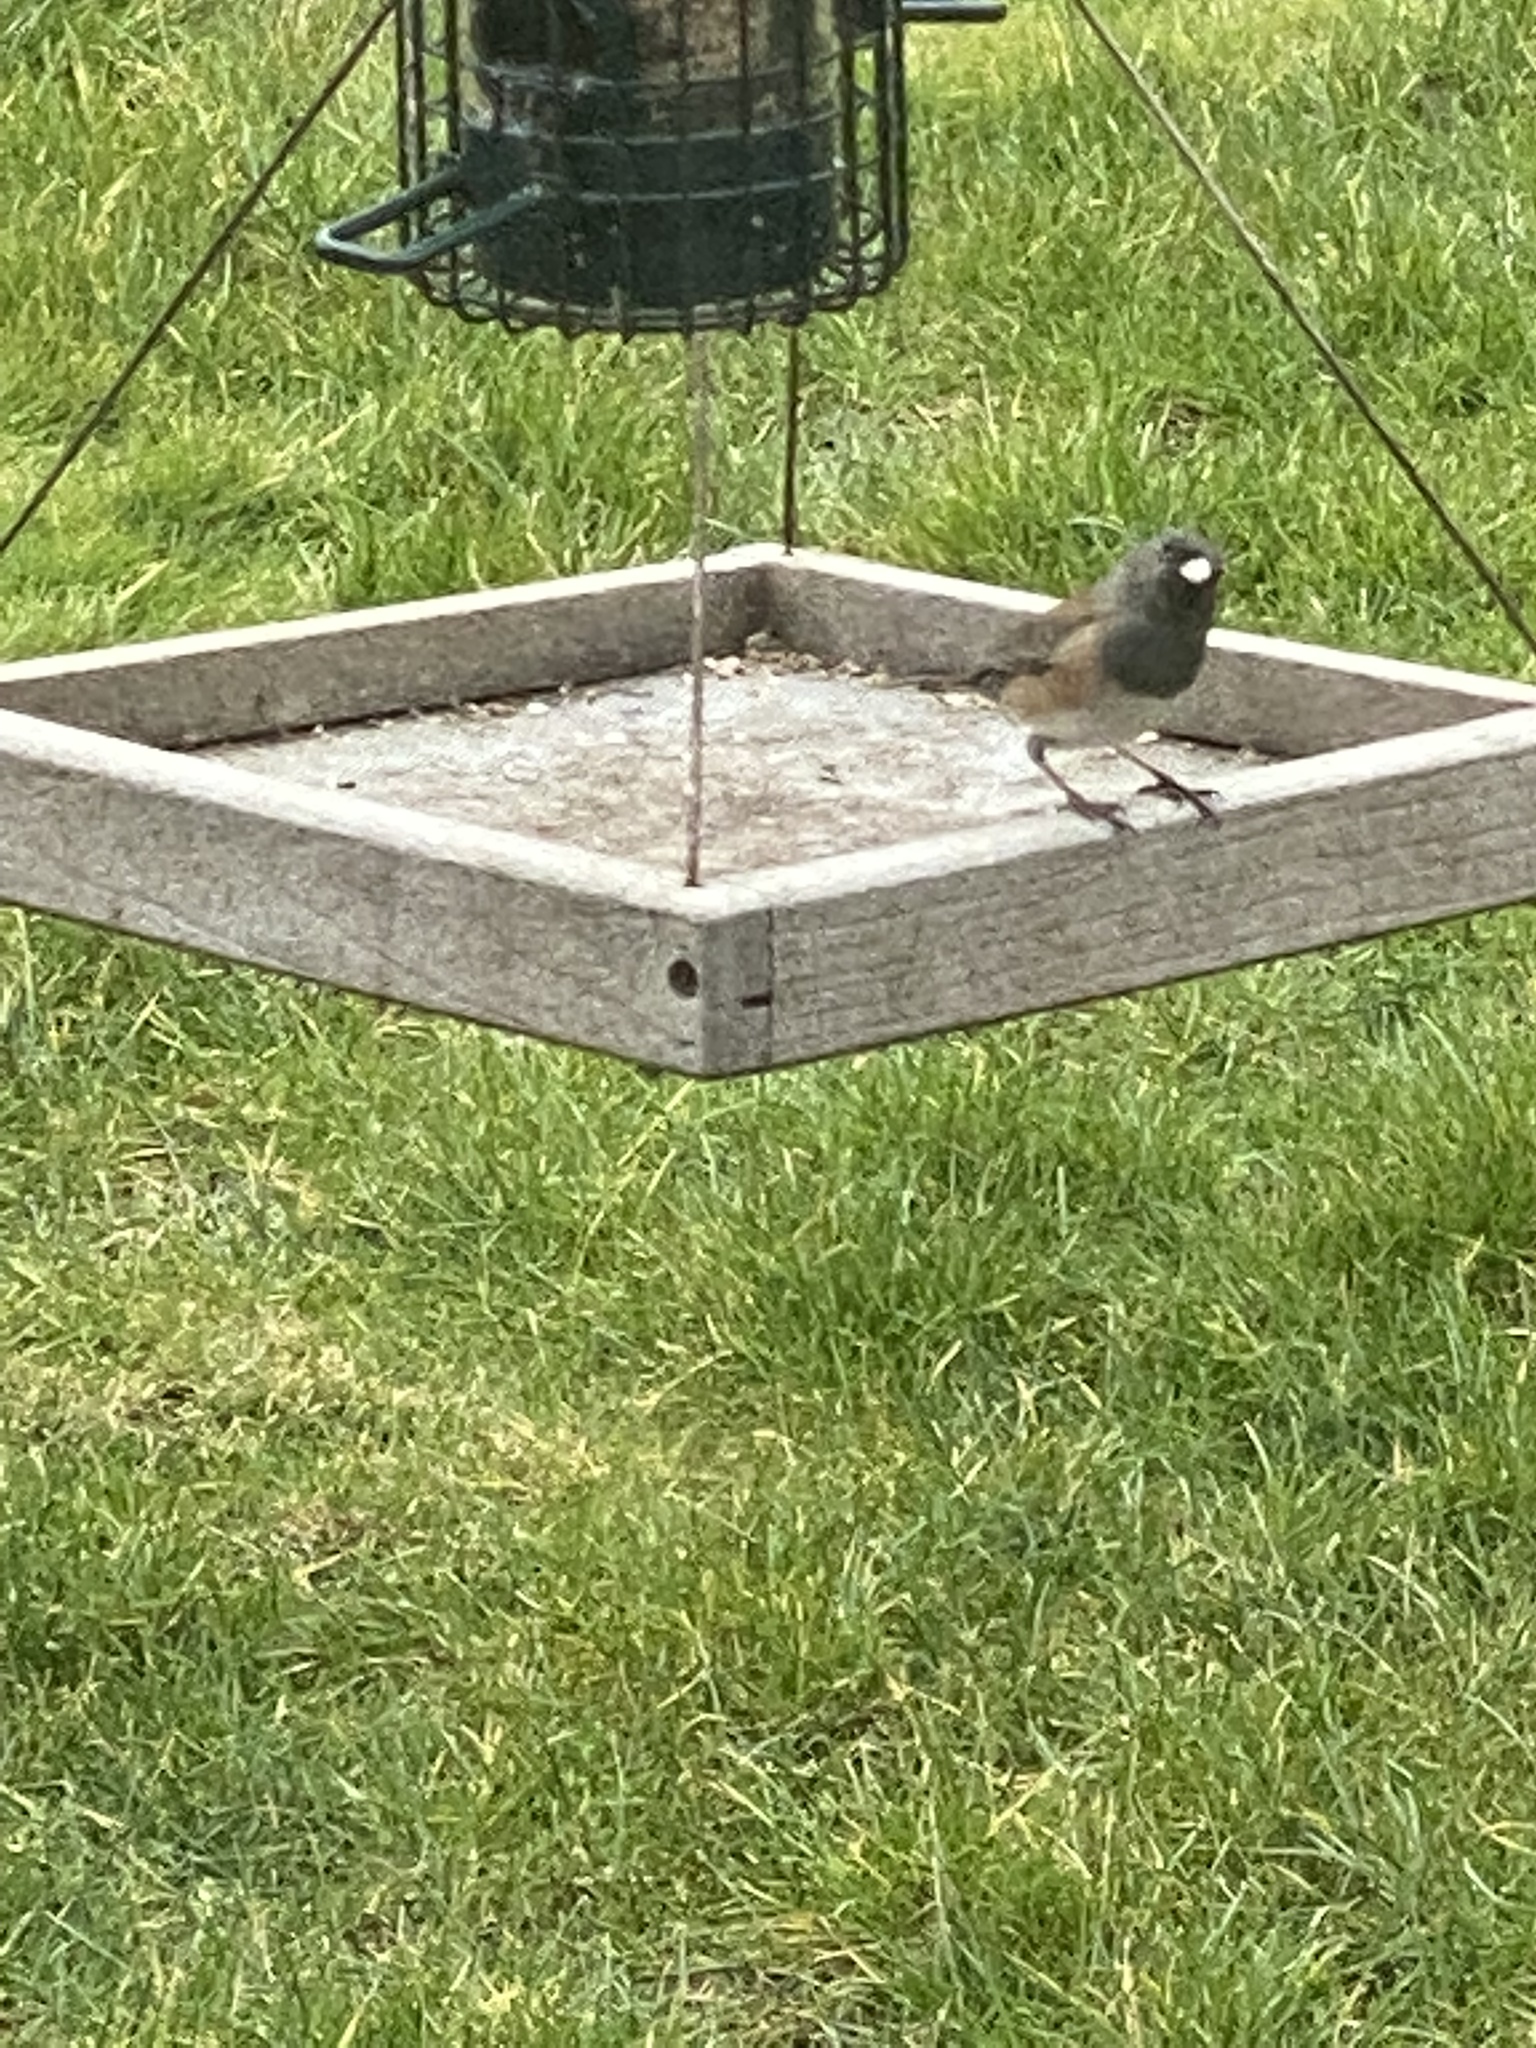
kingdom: Animalia
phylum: Chordata
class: Aves
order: Passeriformes
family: Passerellidae
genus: Junco
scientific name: Junco hyemalis
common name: Dark-eyed junco
